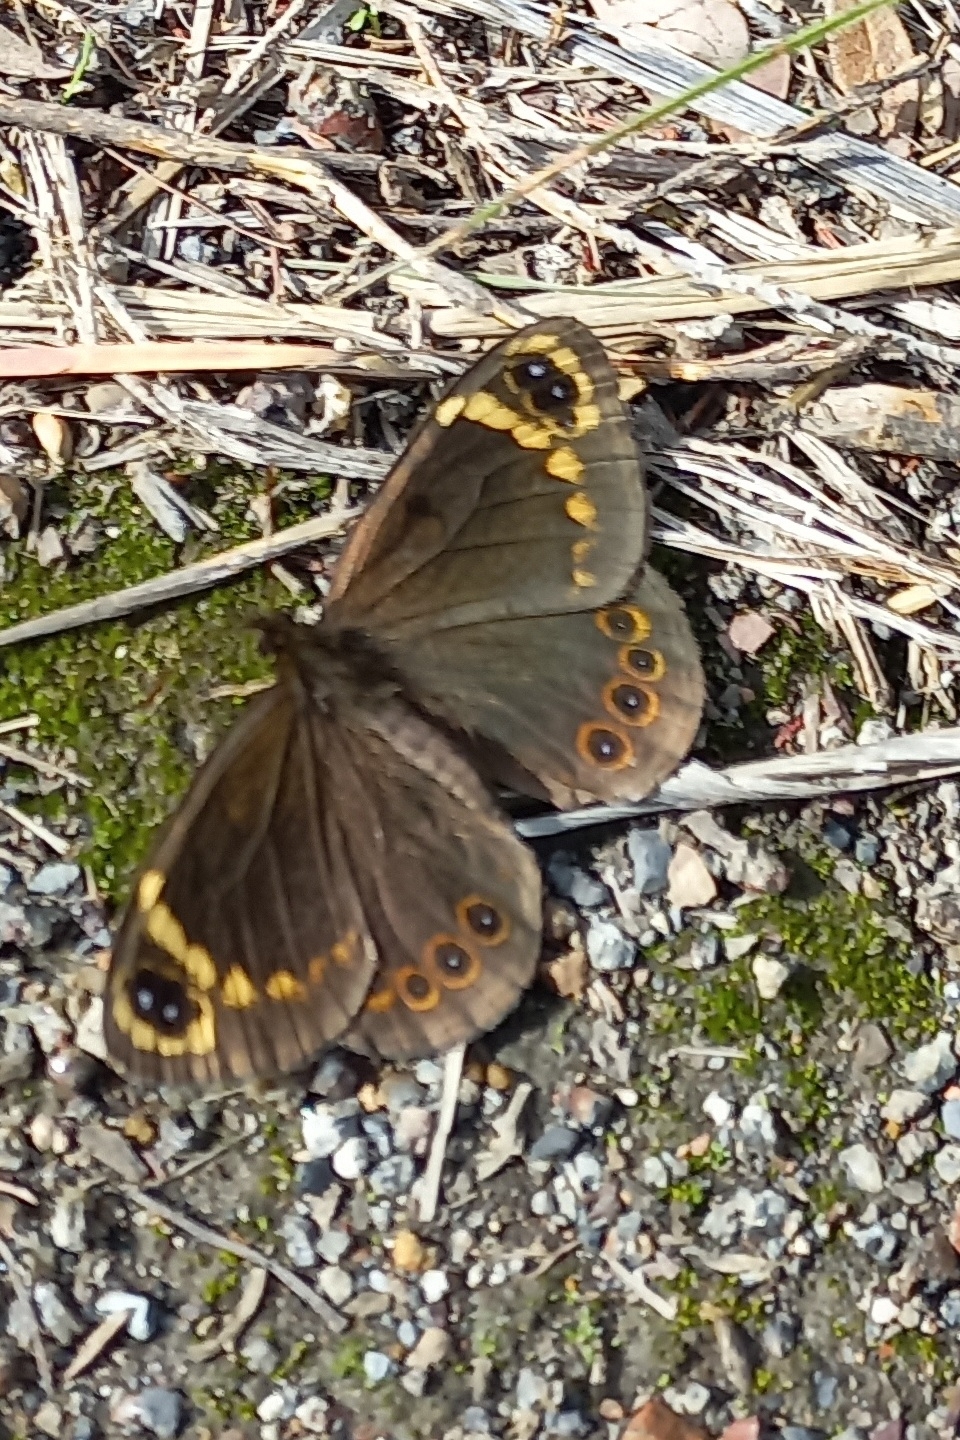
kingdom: Animalia
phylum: Arthropoda
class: Insecta
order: Lepidoptera
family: Nymphalidae
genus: Dira
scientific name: Dira clytus
